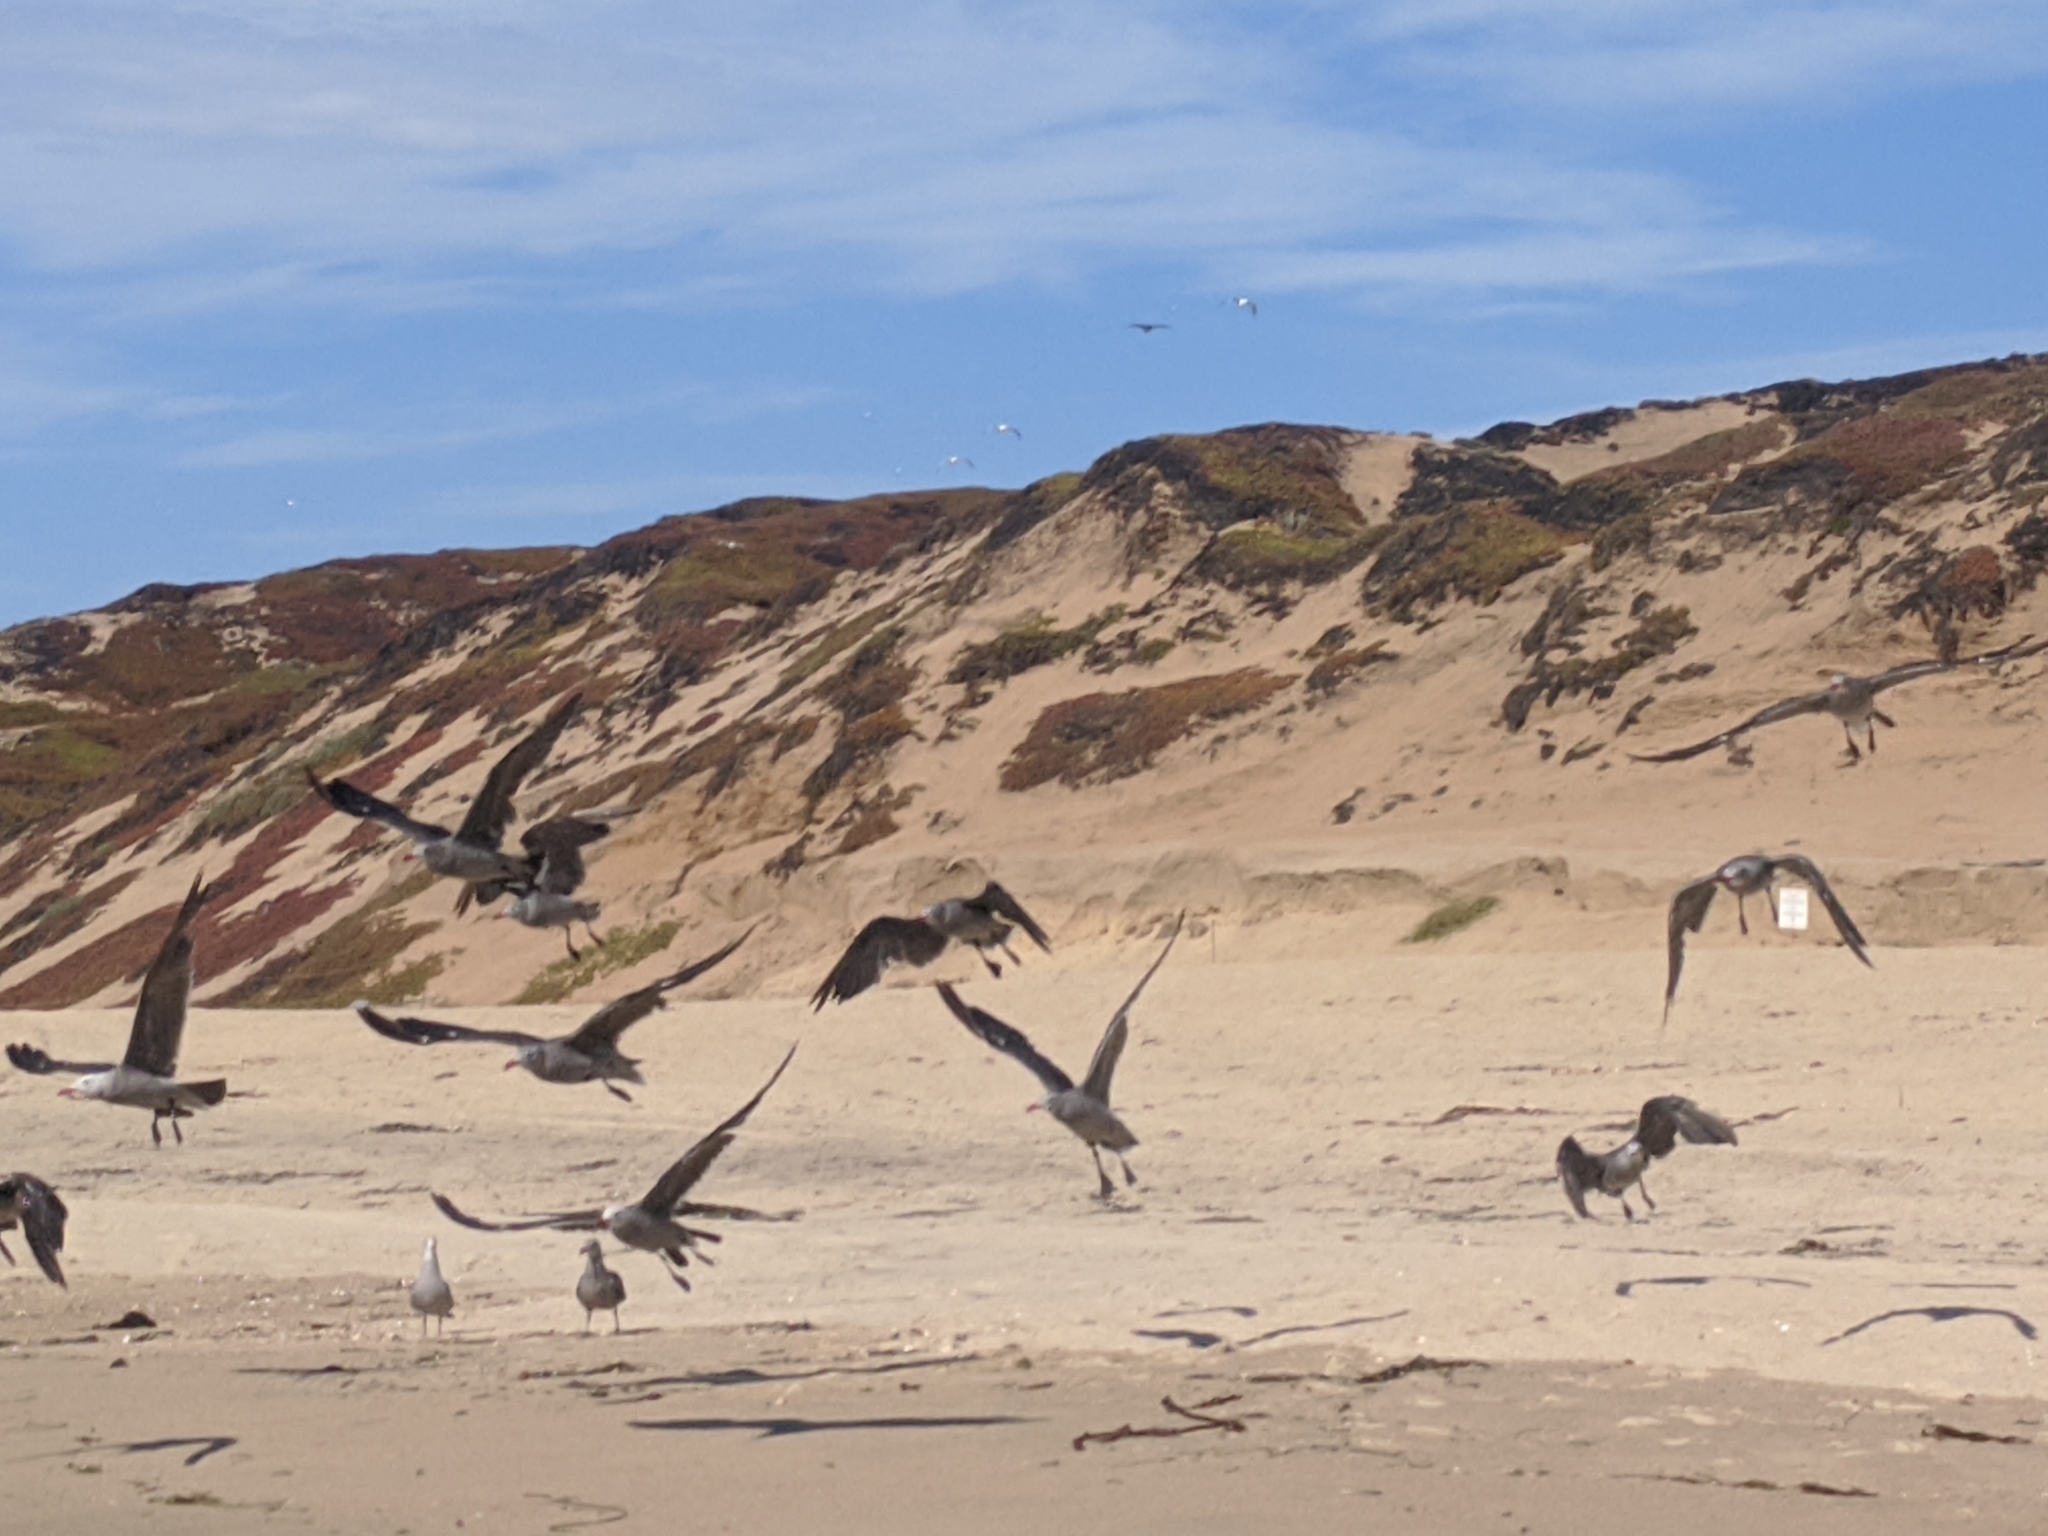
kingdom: Animalia
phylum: Chordata
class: Aves
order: Charadriiformes
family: Laridae
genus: Larus
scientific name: Larus heermanni
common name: Heermann's gull
